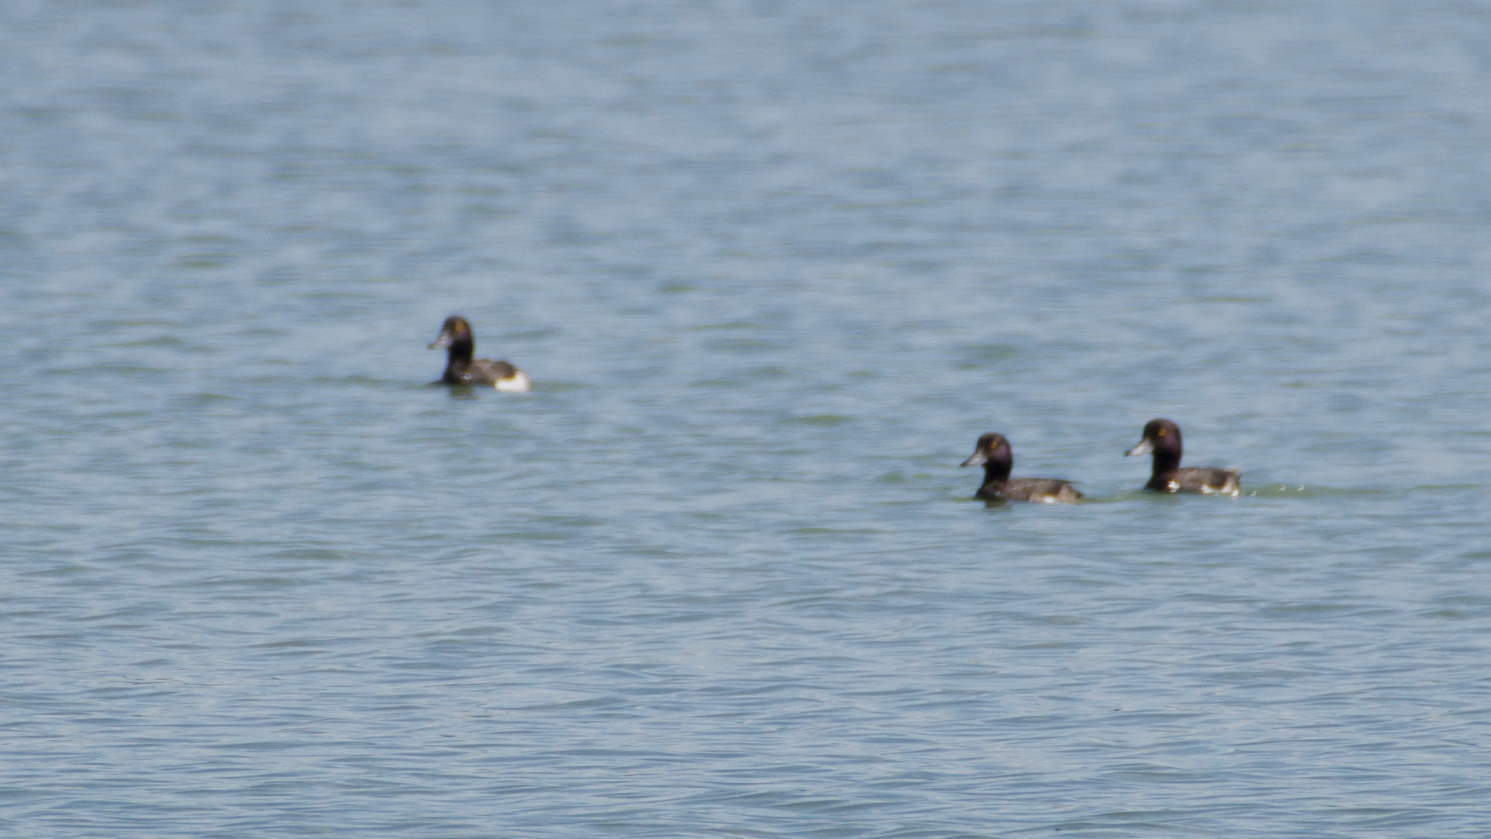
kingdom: Animalia
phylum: Chordata
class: Aves
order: Anseriformes
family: Anatidae
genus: Aythya
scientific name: Aythya fuligula
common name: Tufted duck
